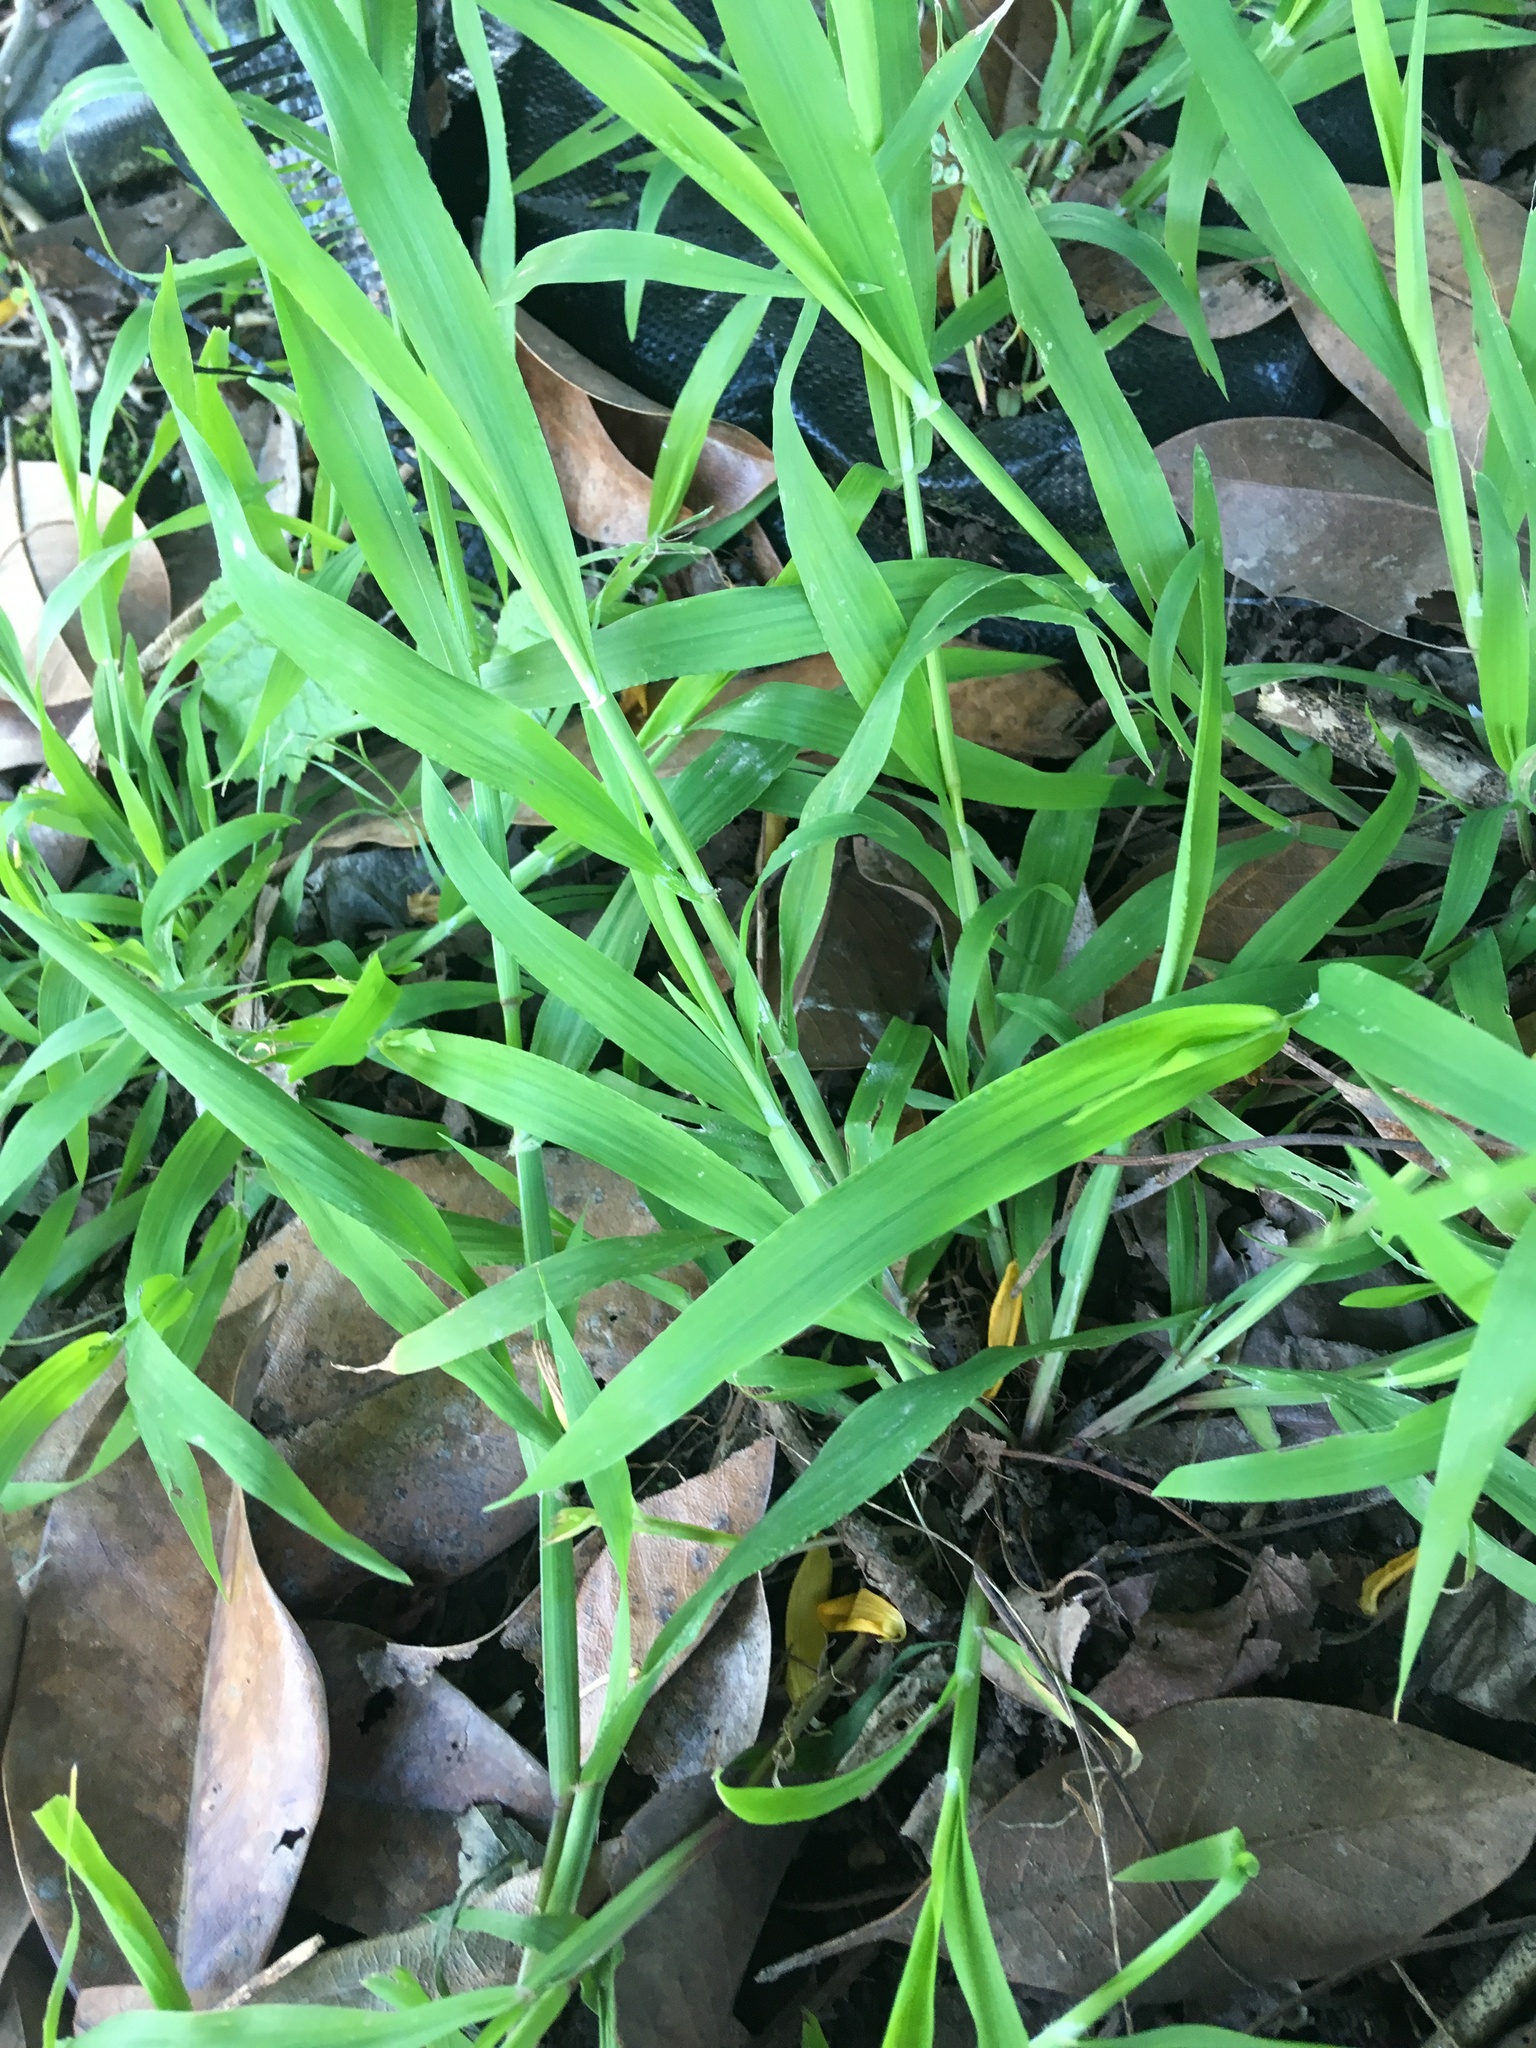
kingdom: Plantae
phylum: Tracheophyta
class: Liliopsida
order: Poales
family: Poaceae
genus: Ehrharta
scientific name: Ehrharta erecta
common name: Panic veldtgrass
